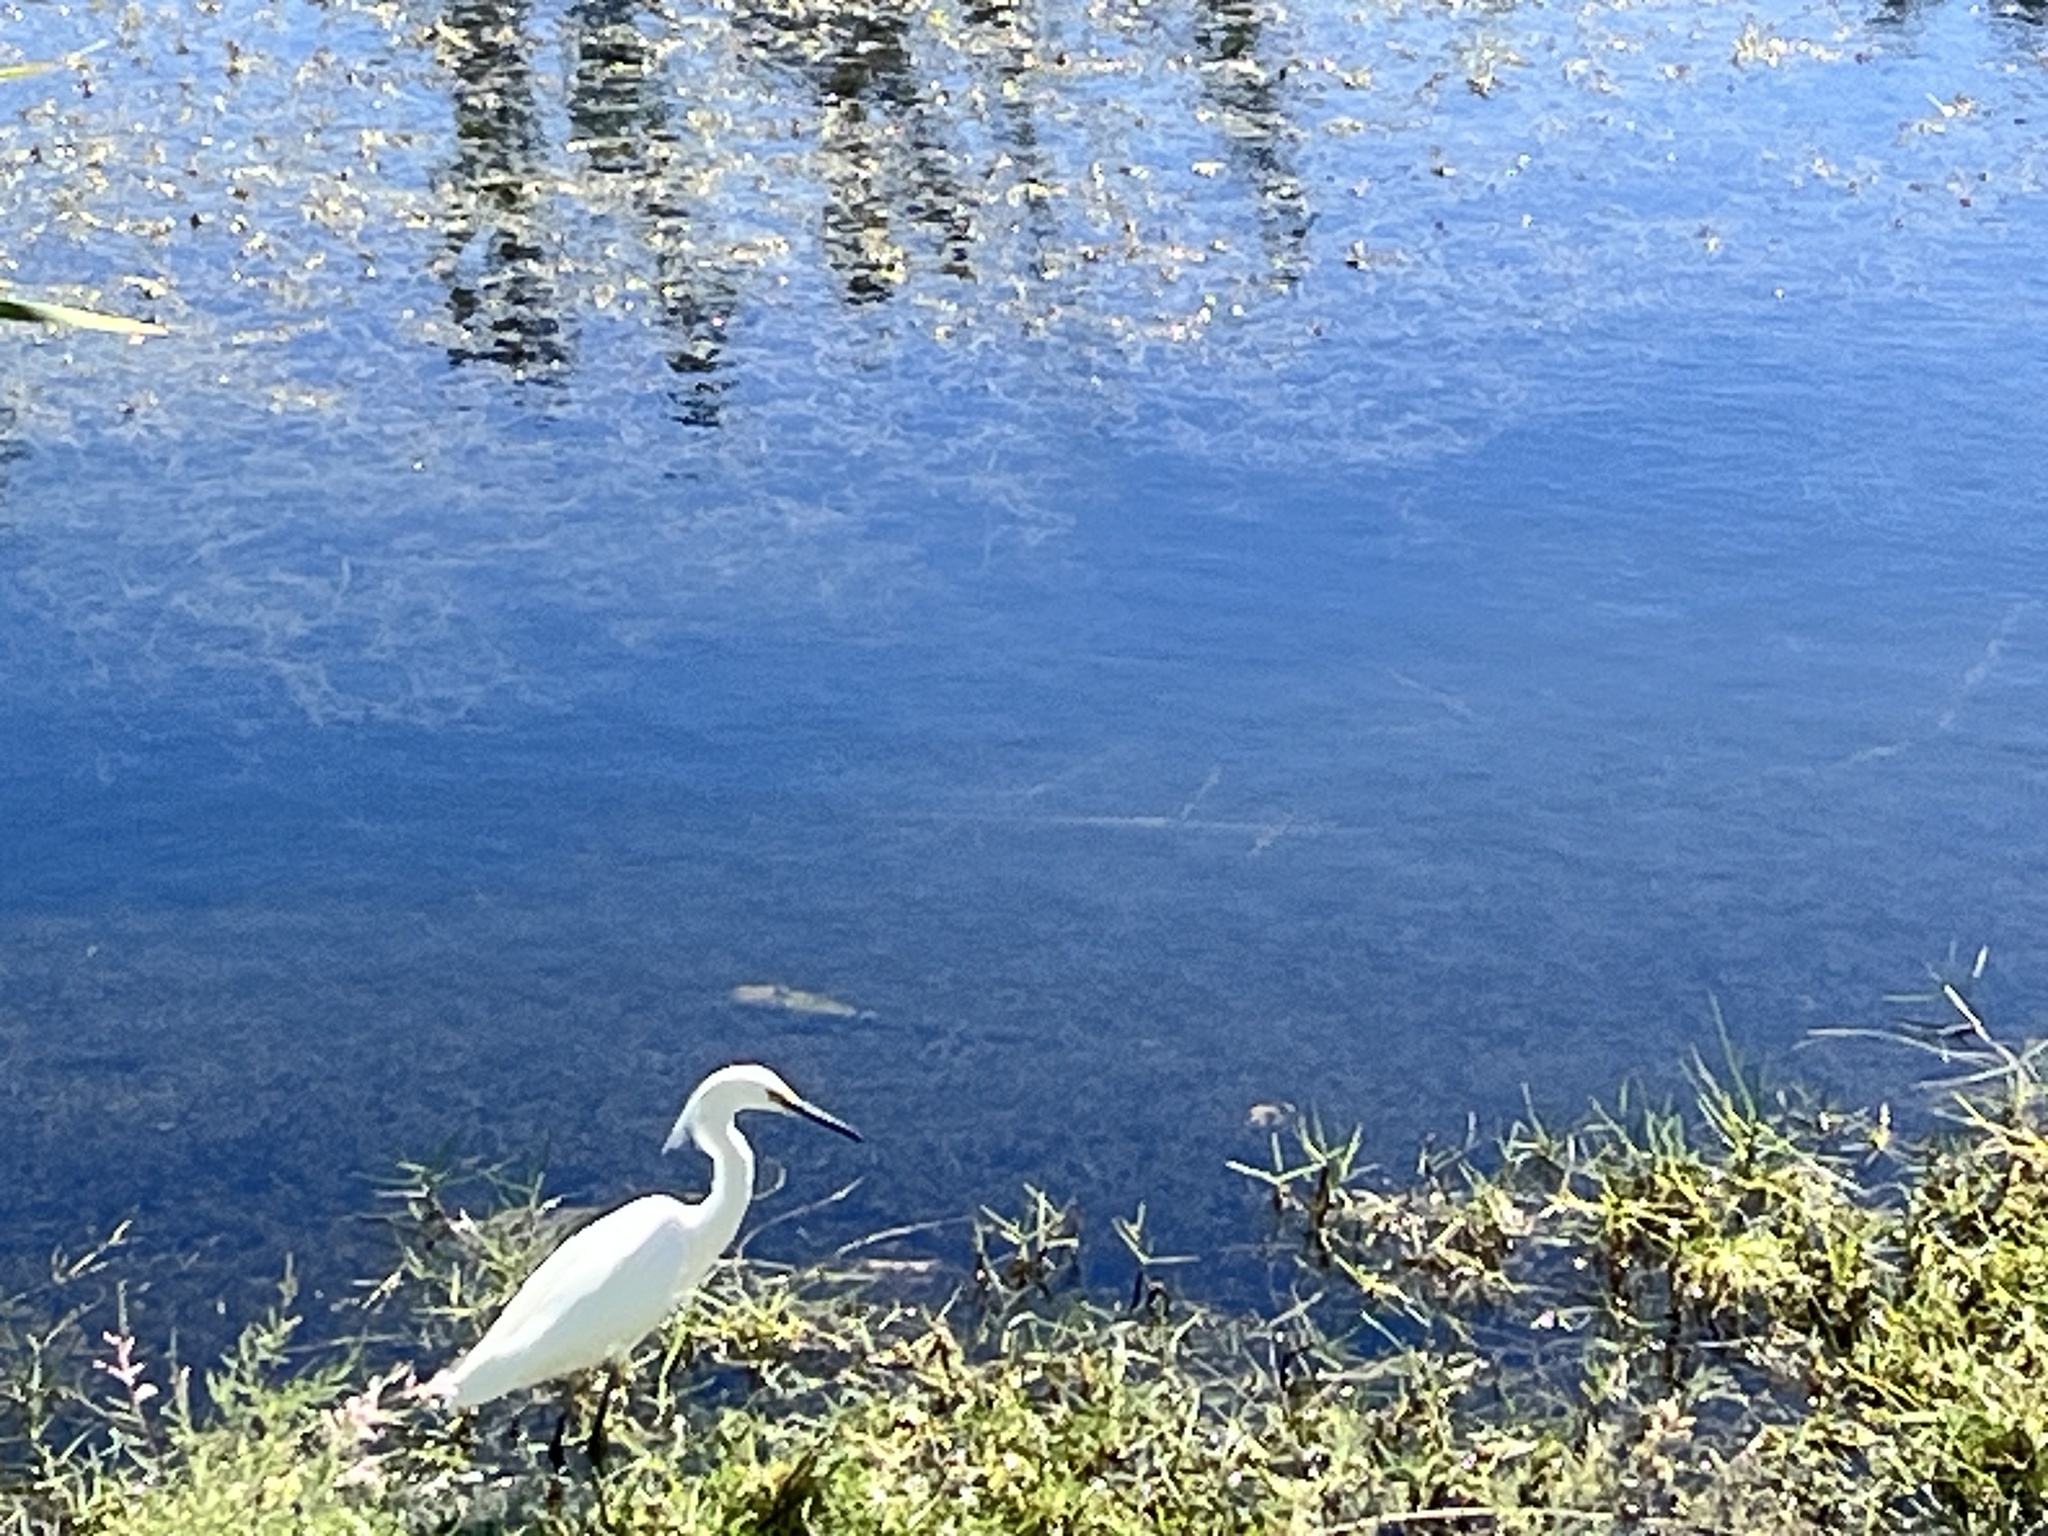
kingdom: Animalia
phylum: Chordata
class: Aves
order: Pelecaniformes
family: Ardeidae
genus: Egretta
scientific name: Egretta thula
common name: Snowy egret
